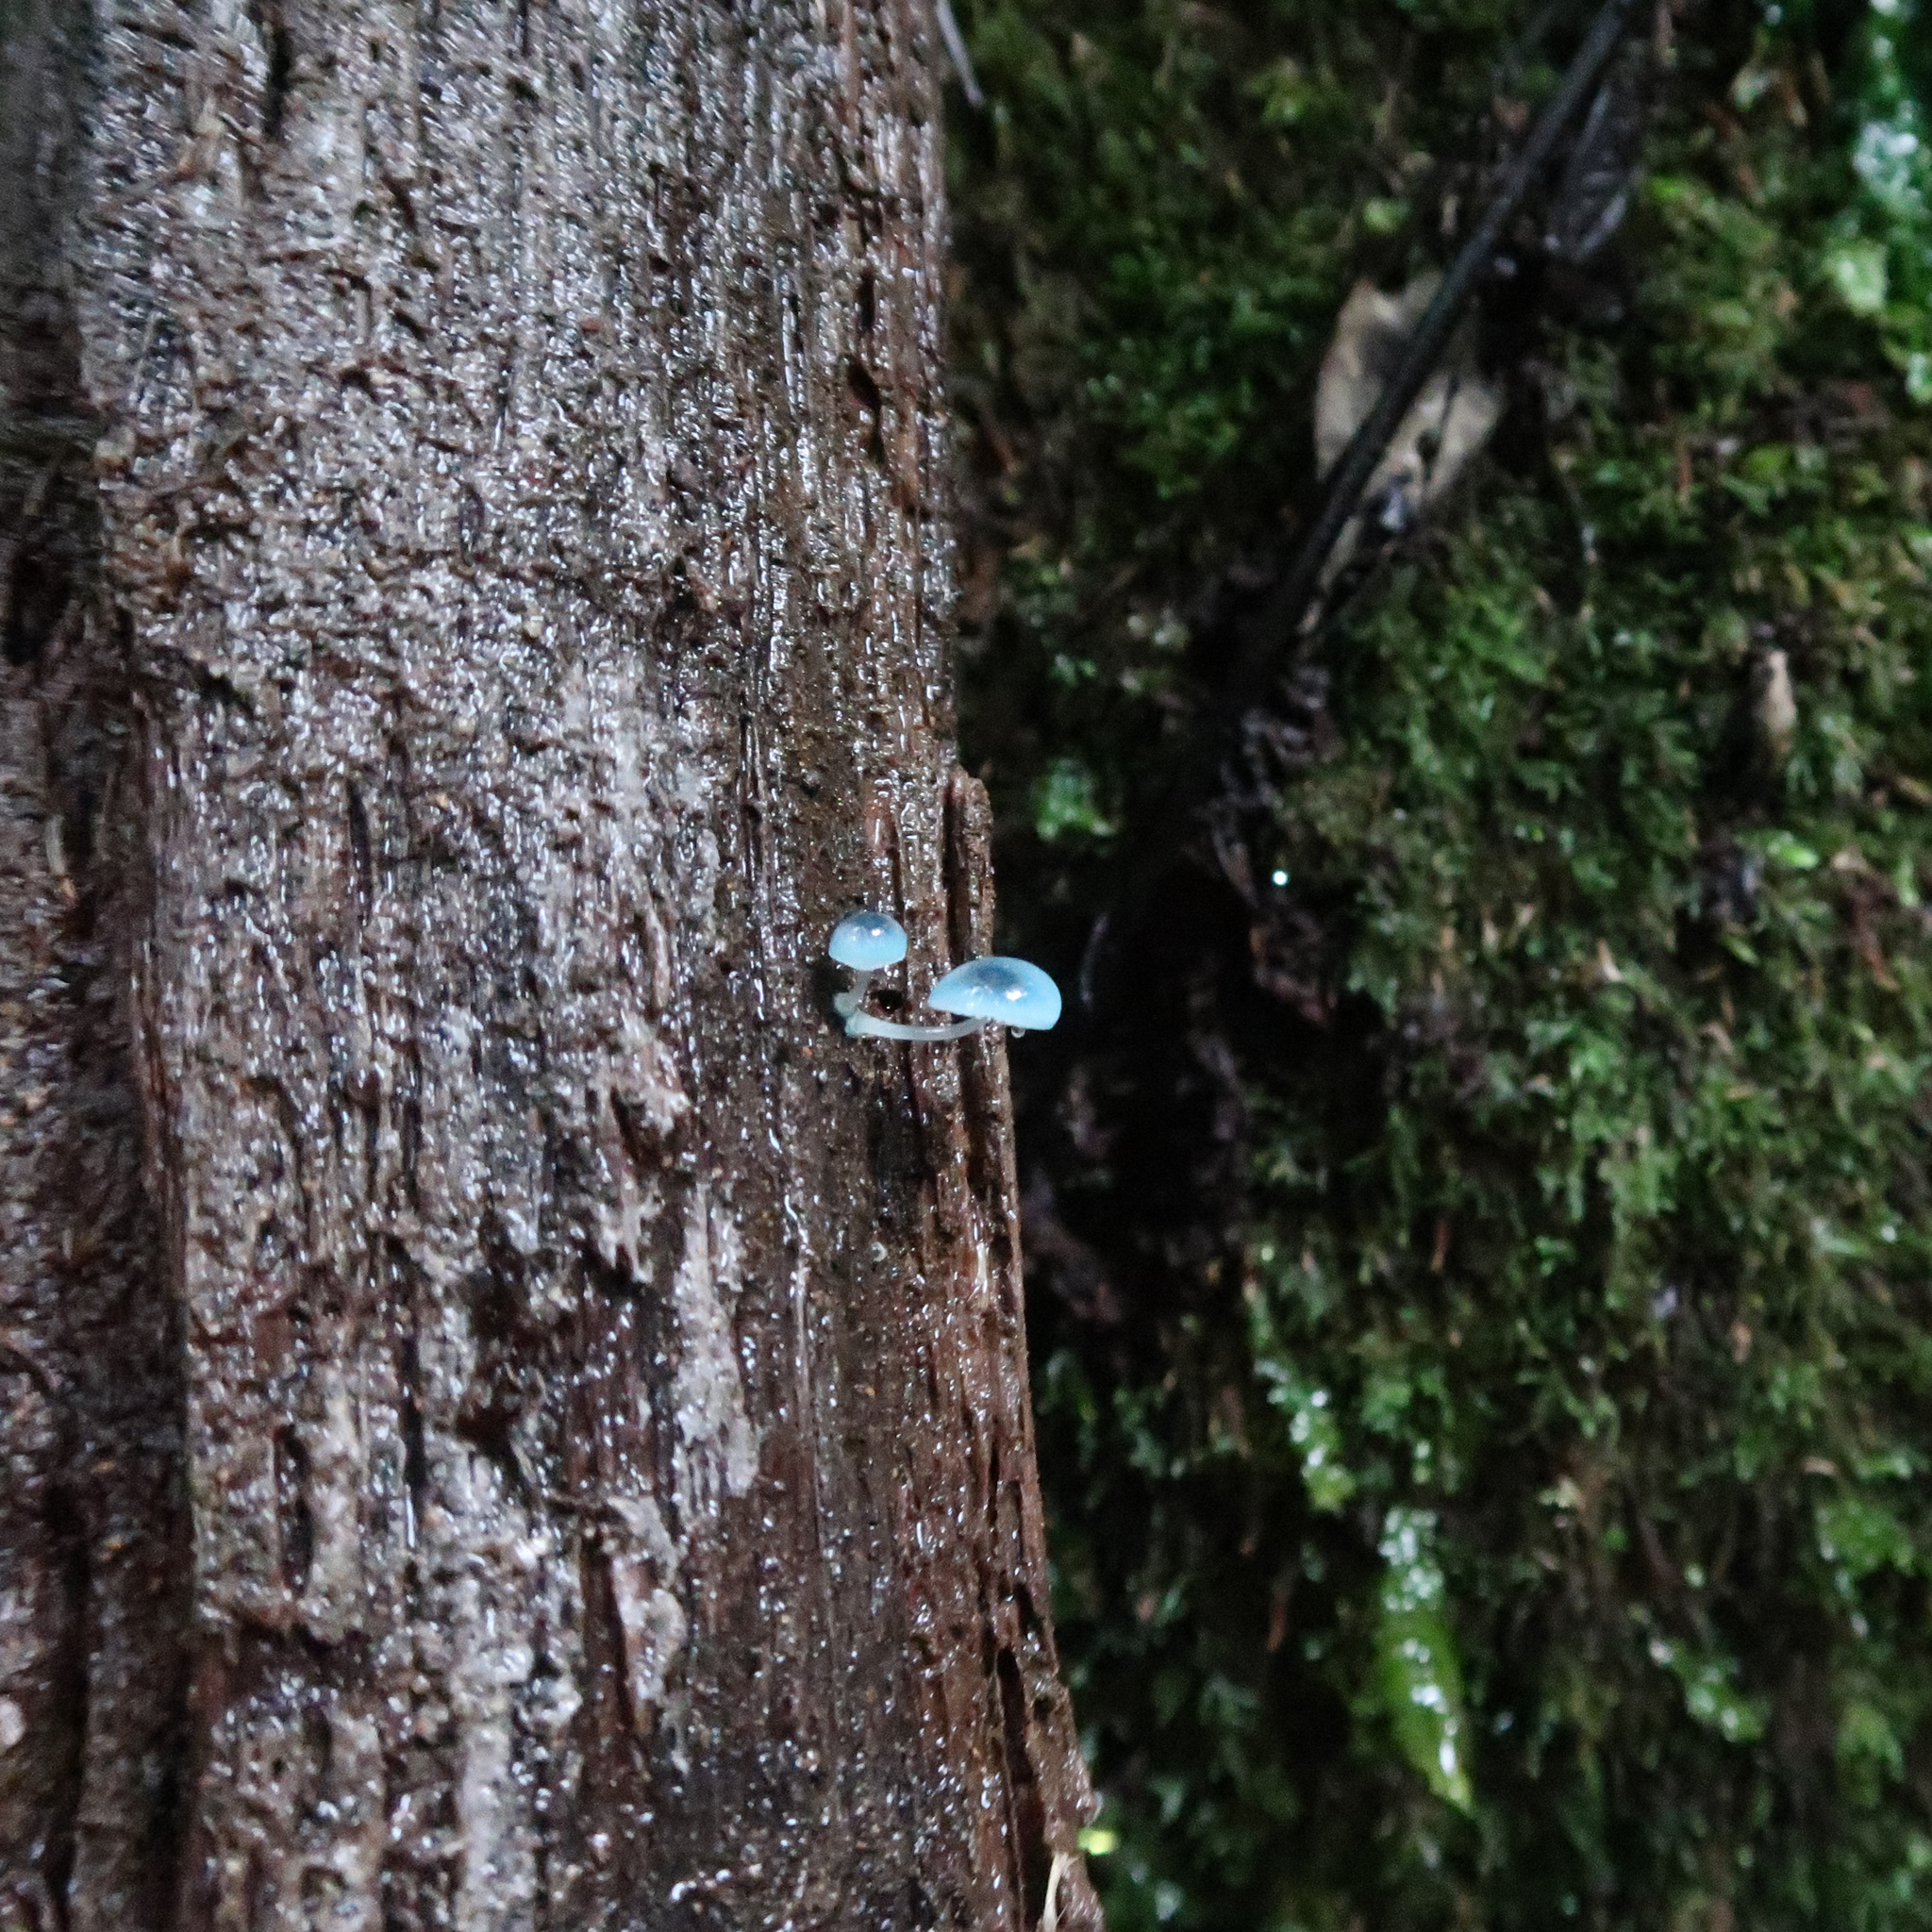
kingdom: Fungi
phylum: Basidiomycota
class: Agaricomycetes
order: Agaricales
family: Mycenaceae
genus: Mycena
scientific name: Mycena interrupta
